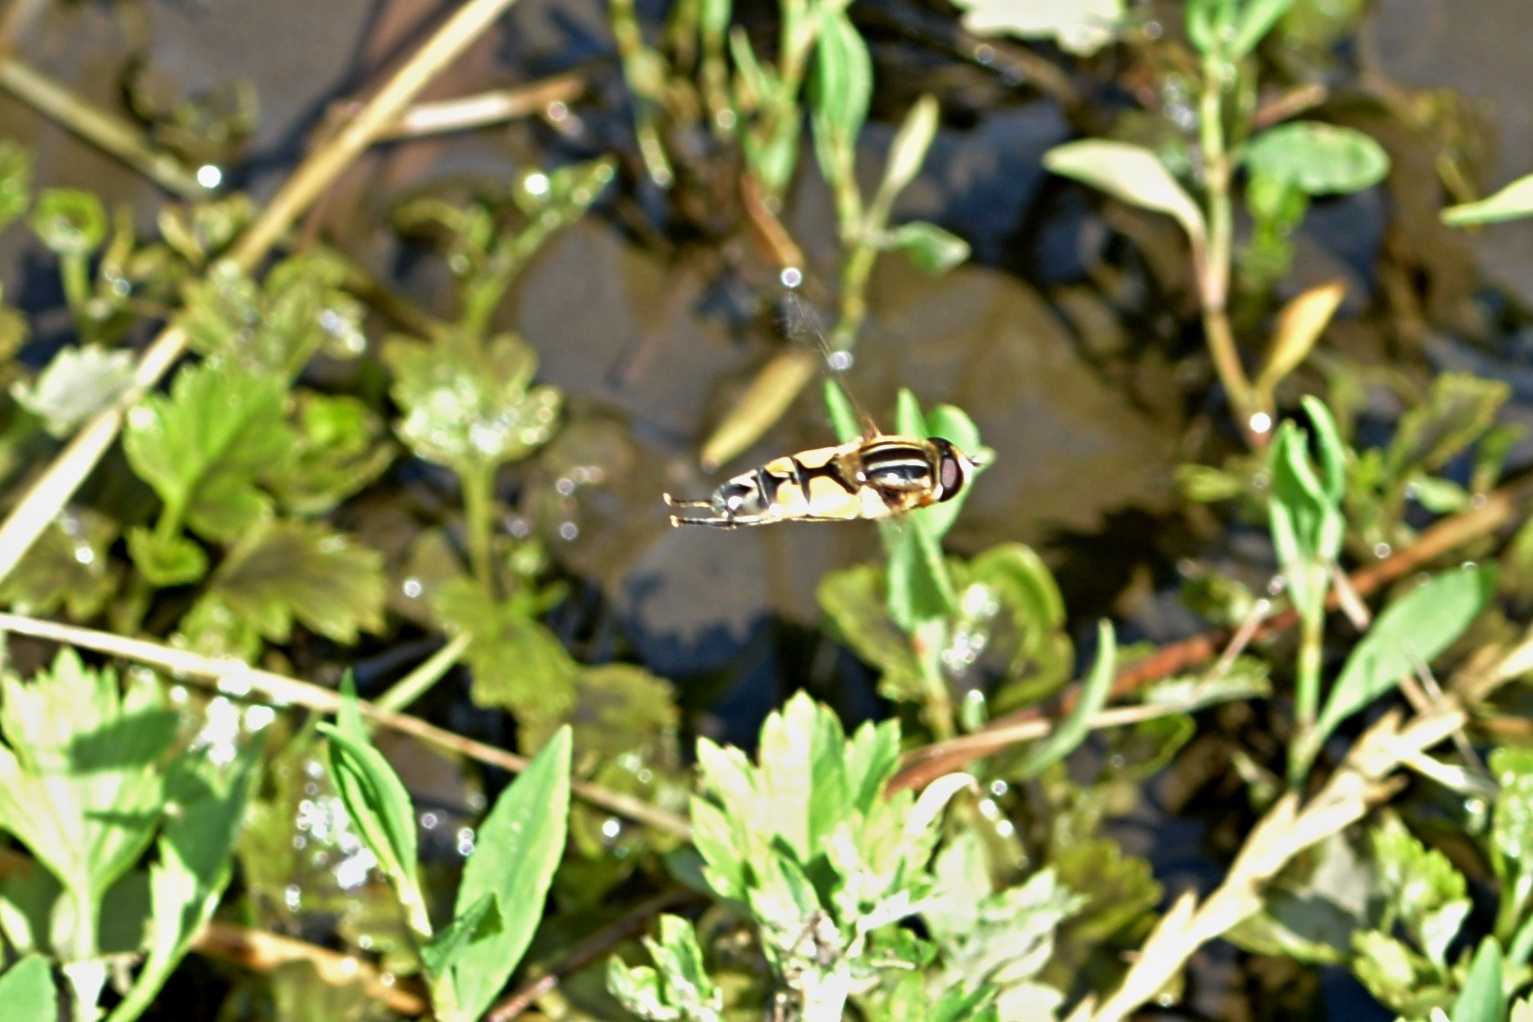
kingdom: Animalia
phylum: Arthropoda
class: Insecta
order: Diptera
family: Syrphidae
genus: Helophilus
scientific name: Helophilus trivittatus
